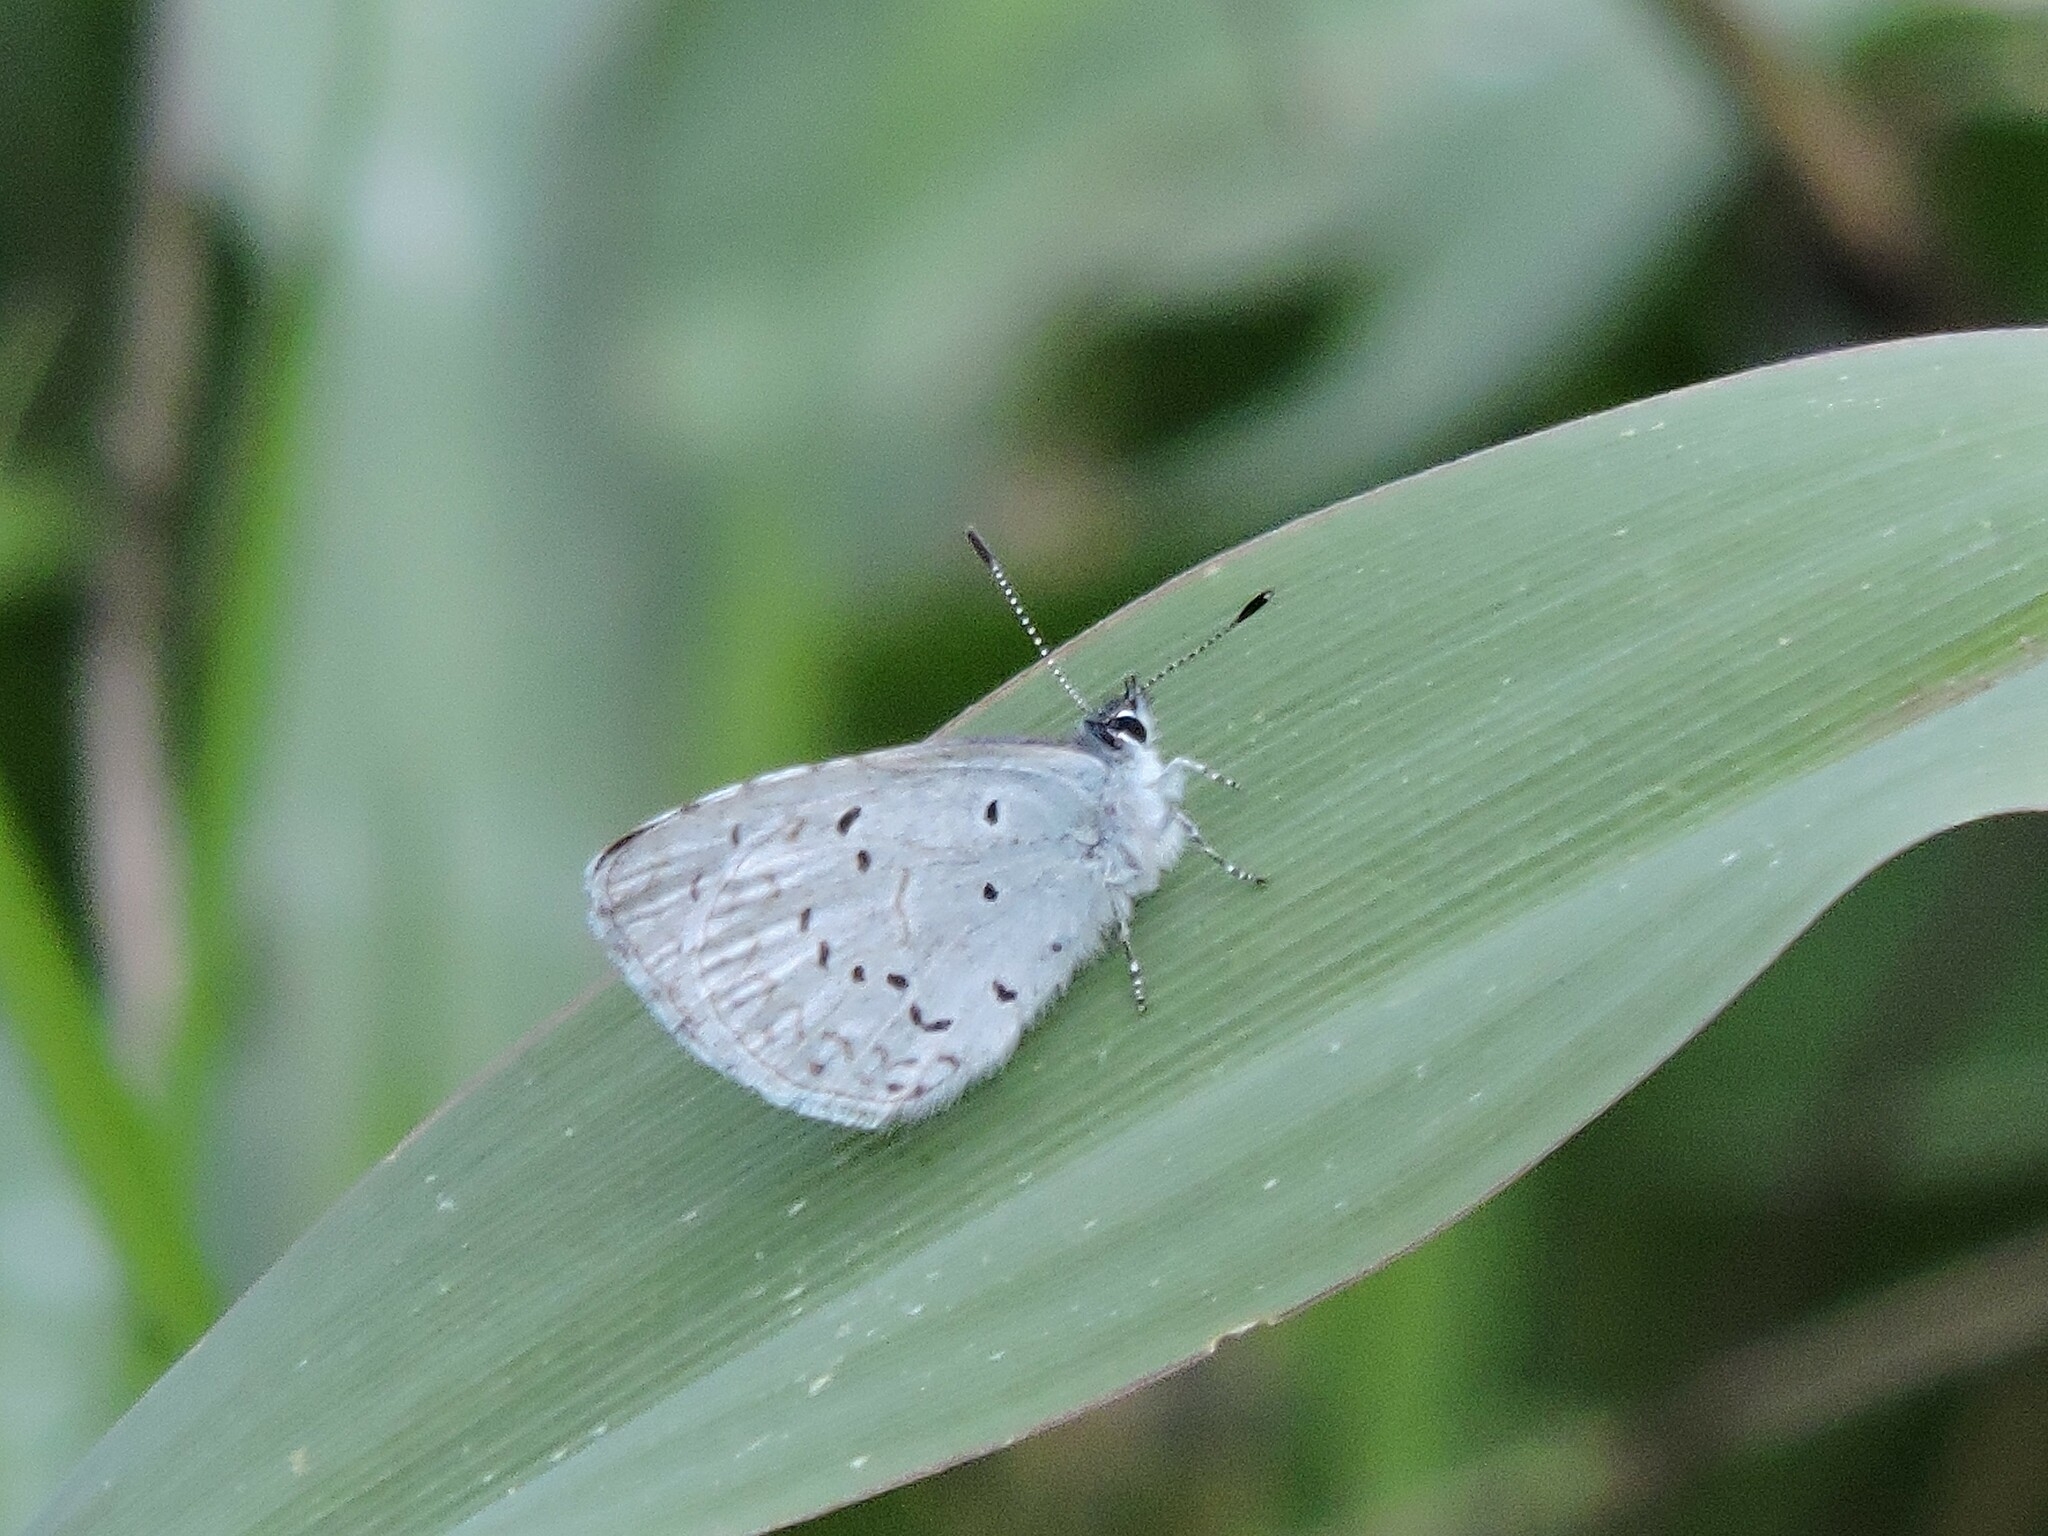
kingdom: Animalia
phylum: Arthropoda
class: Insecta
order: Lepidoptera
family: Lycaenidae
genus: Celastrina
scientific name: Celastrina ladon
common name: Spring azure
